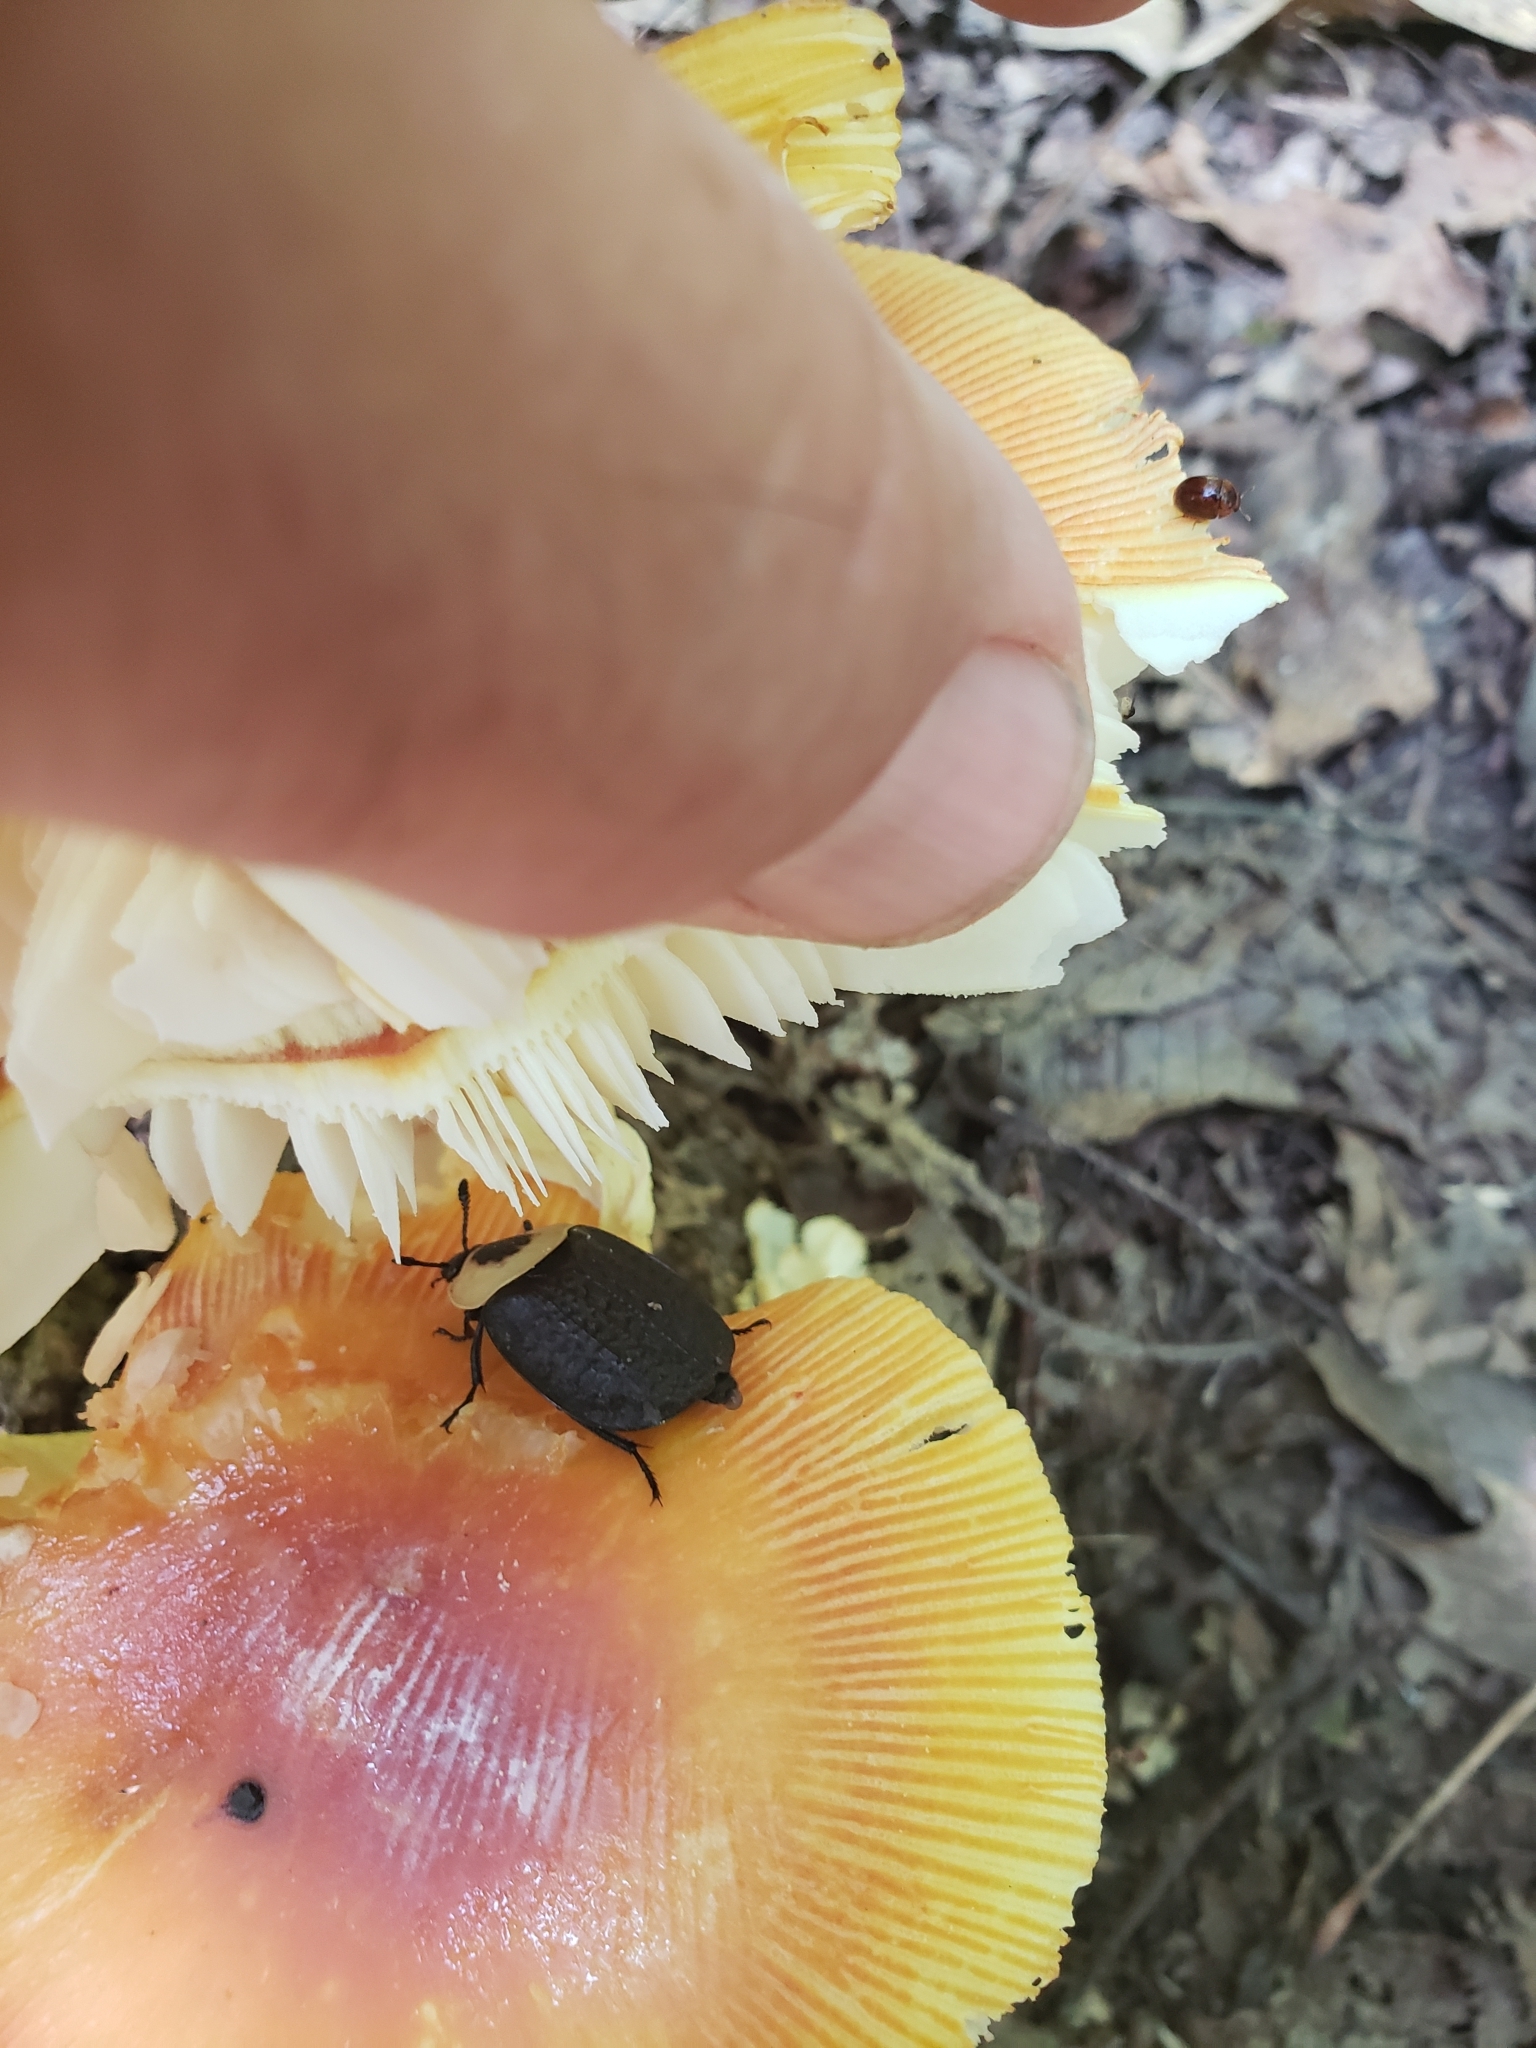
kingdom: Animalia
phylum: Arthropoda
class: Insecta
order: Coleoptera
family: Staphylinidae
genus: Necrophila
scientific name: Necrophila americana
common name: American carrion beetle
